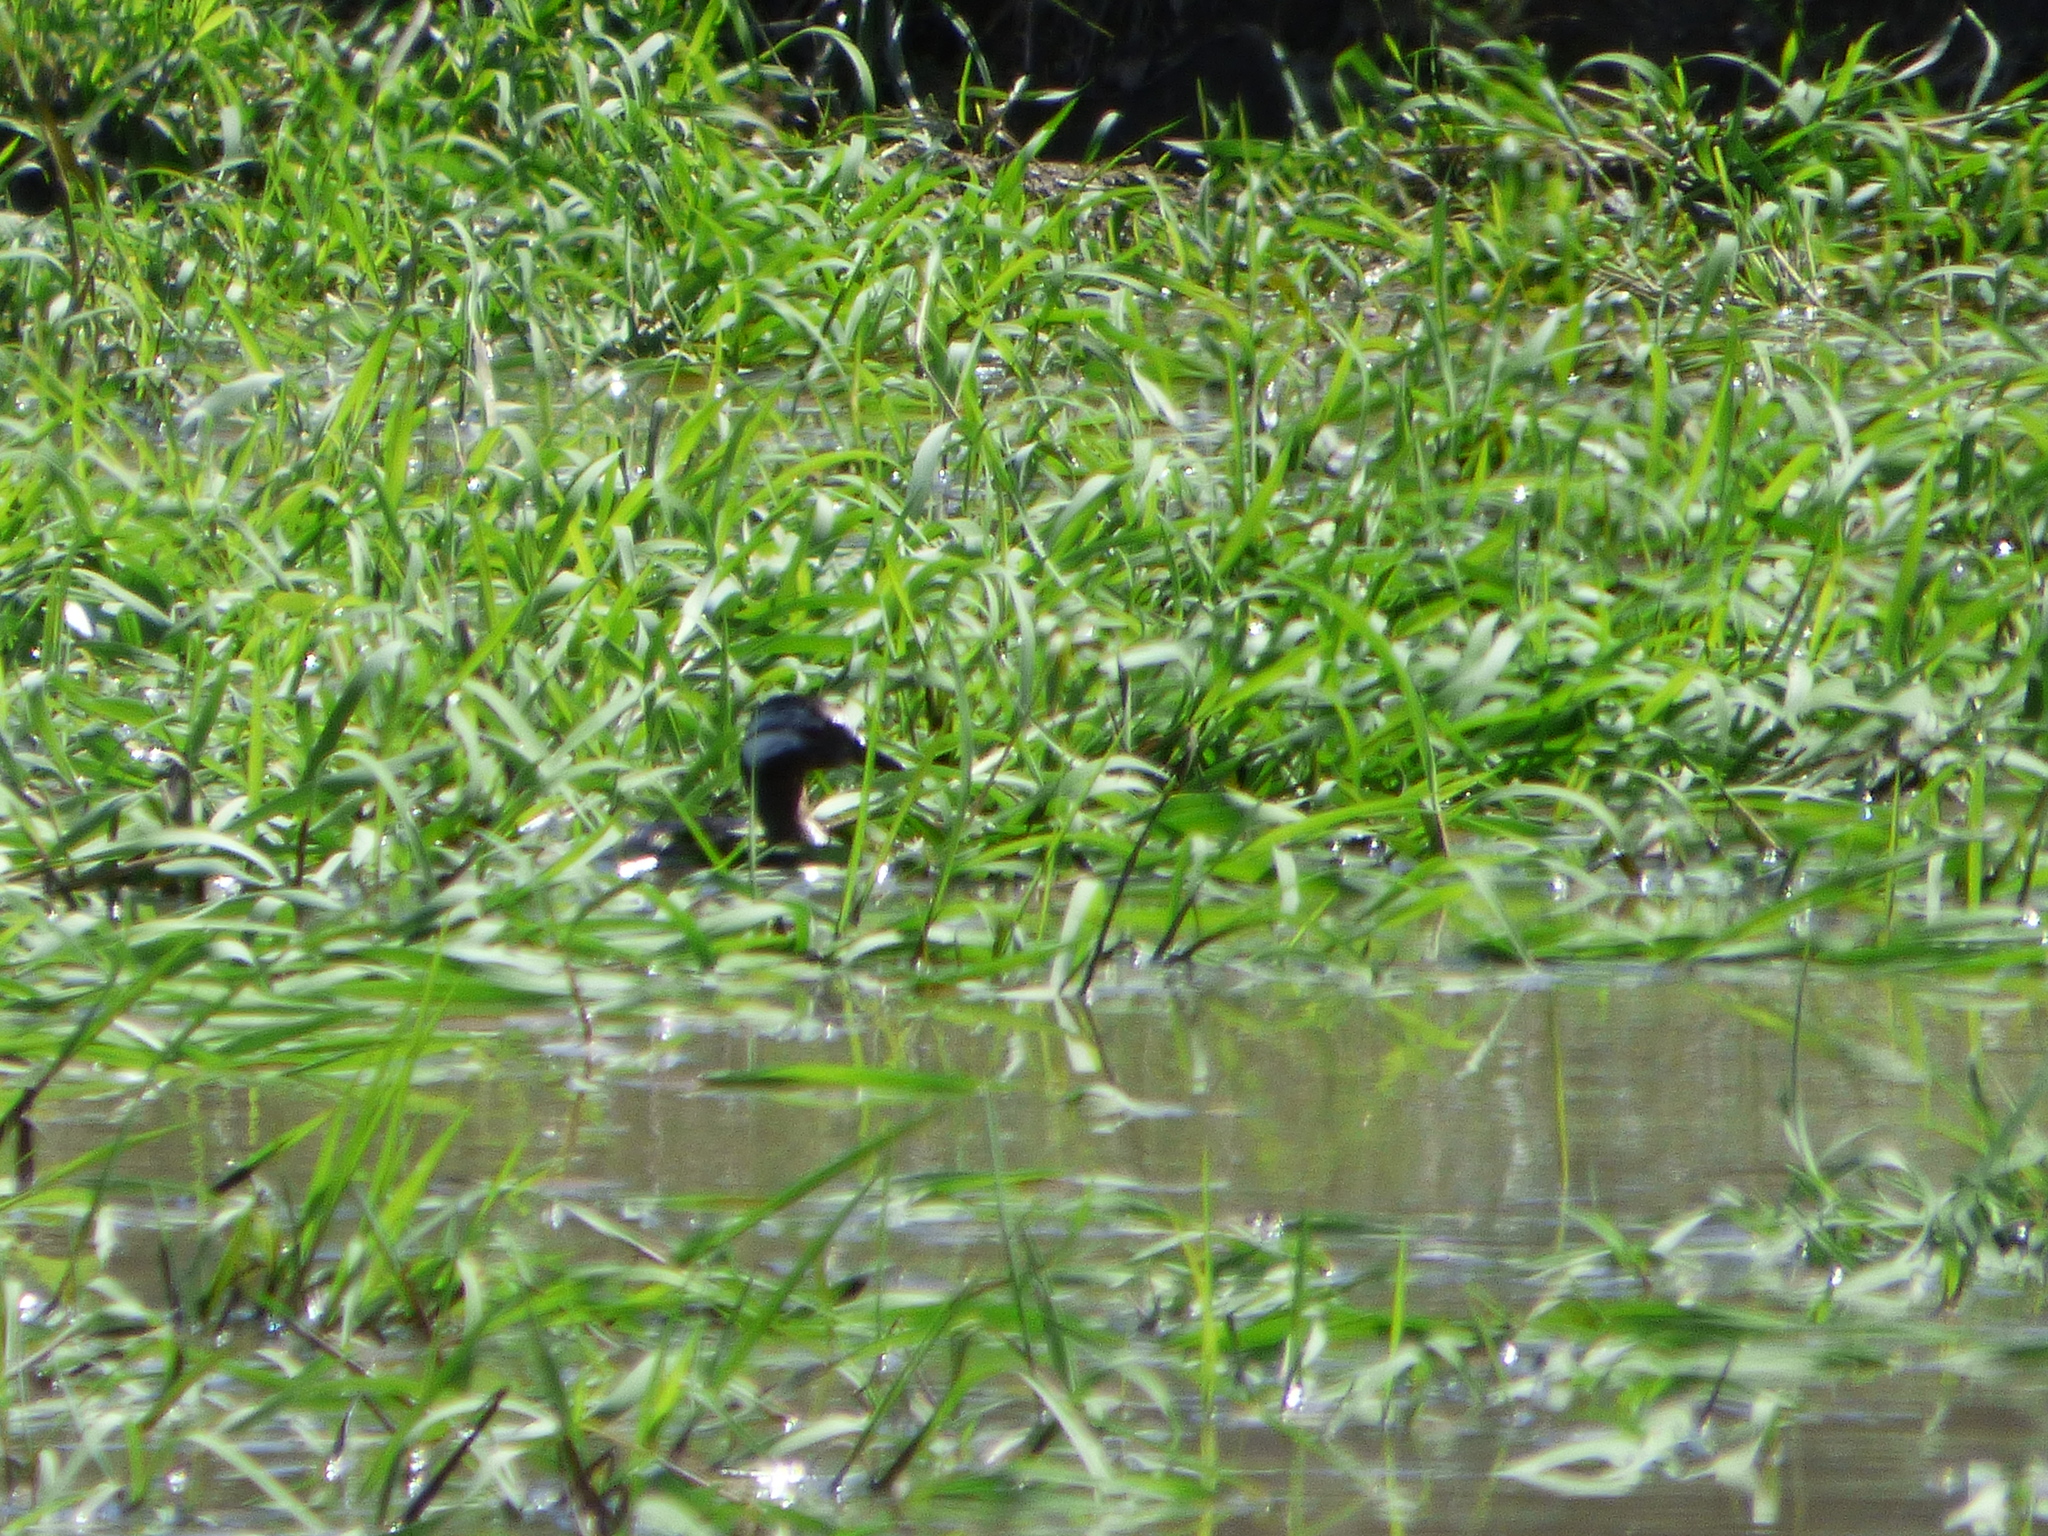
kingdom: Animalia
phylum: Chordata
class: Aves
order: Podicipediformes
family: Podicipedidae
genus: Rollandia
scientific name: Rollandia rolland
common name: White-tufted grebe
